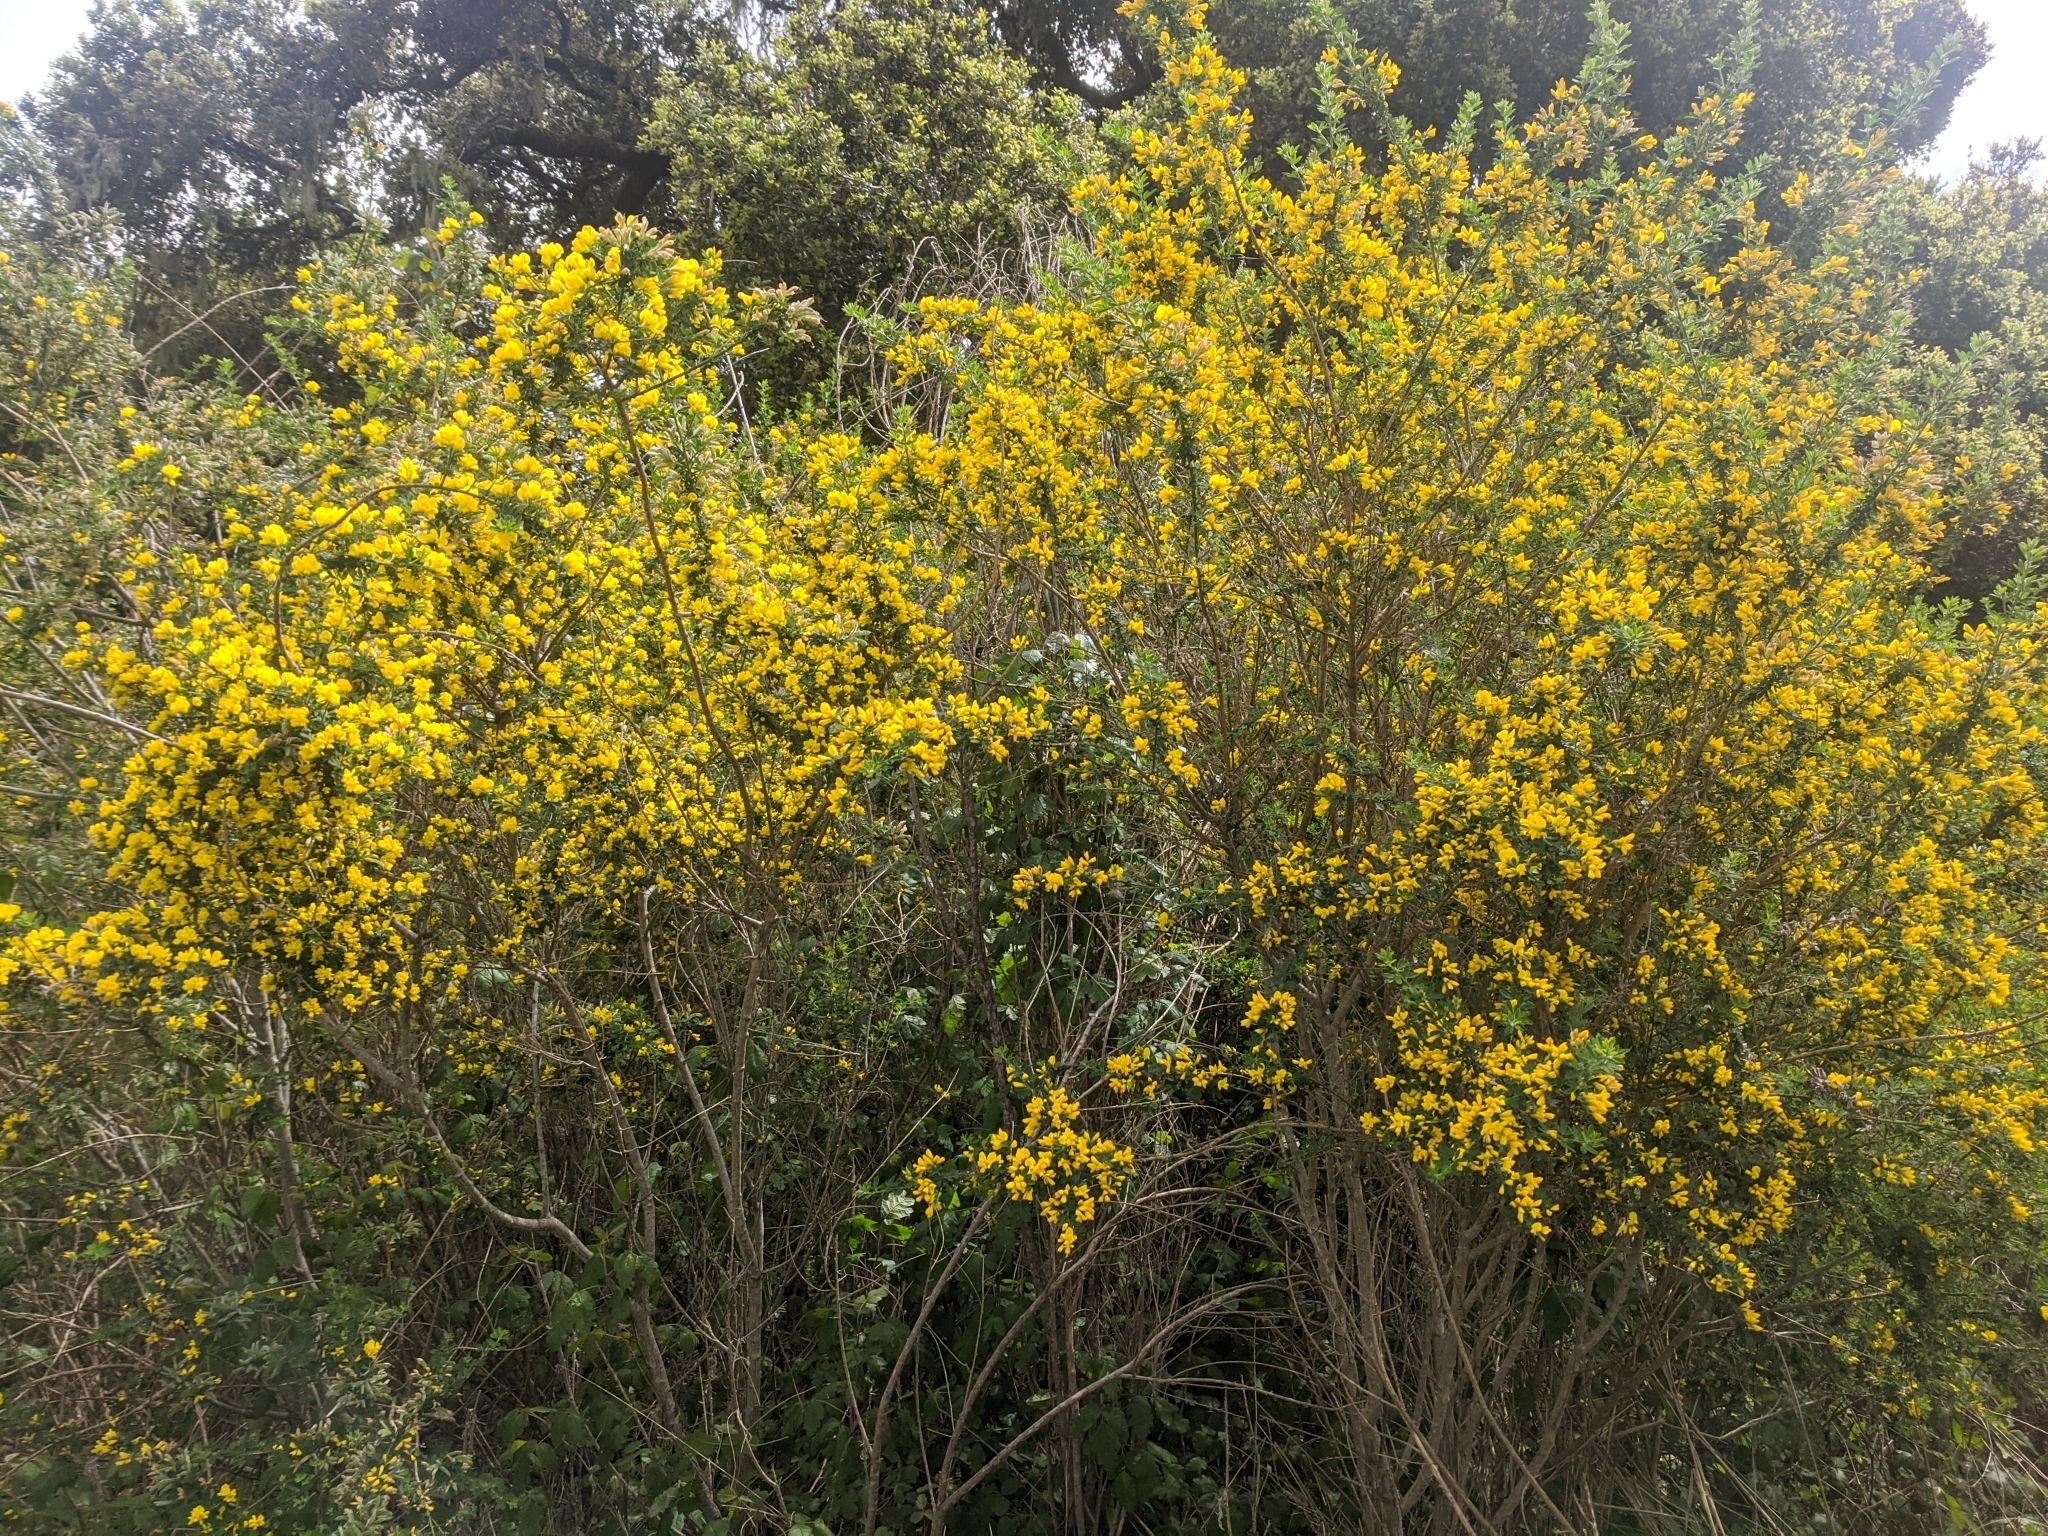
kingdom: Plantae
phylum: Tracheophyta
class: Magnoliopsida
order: Fabales
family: Fabaceae
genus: Genista
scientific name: Genista monspessulana
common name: Montpellier broom
